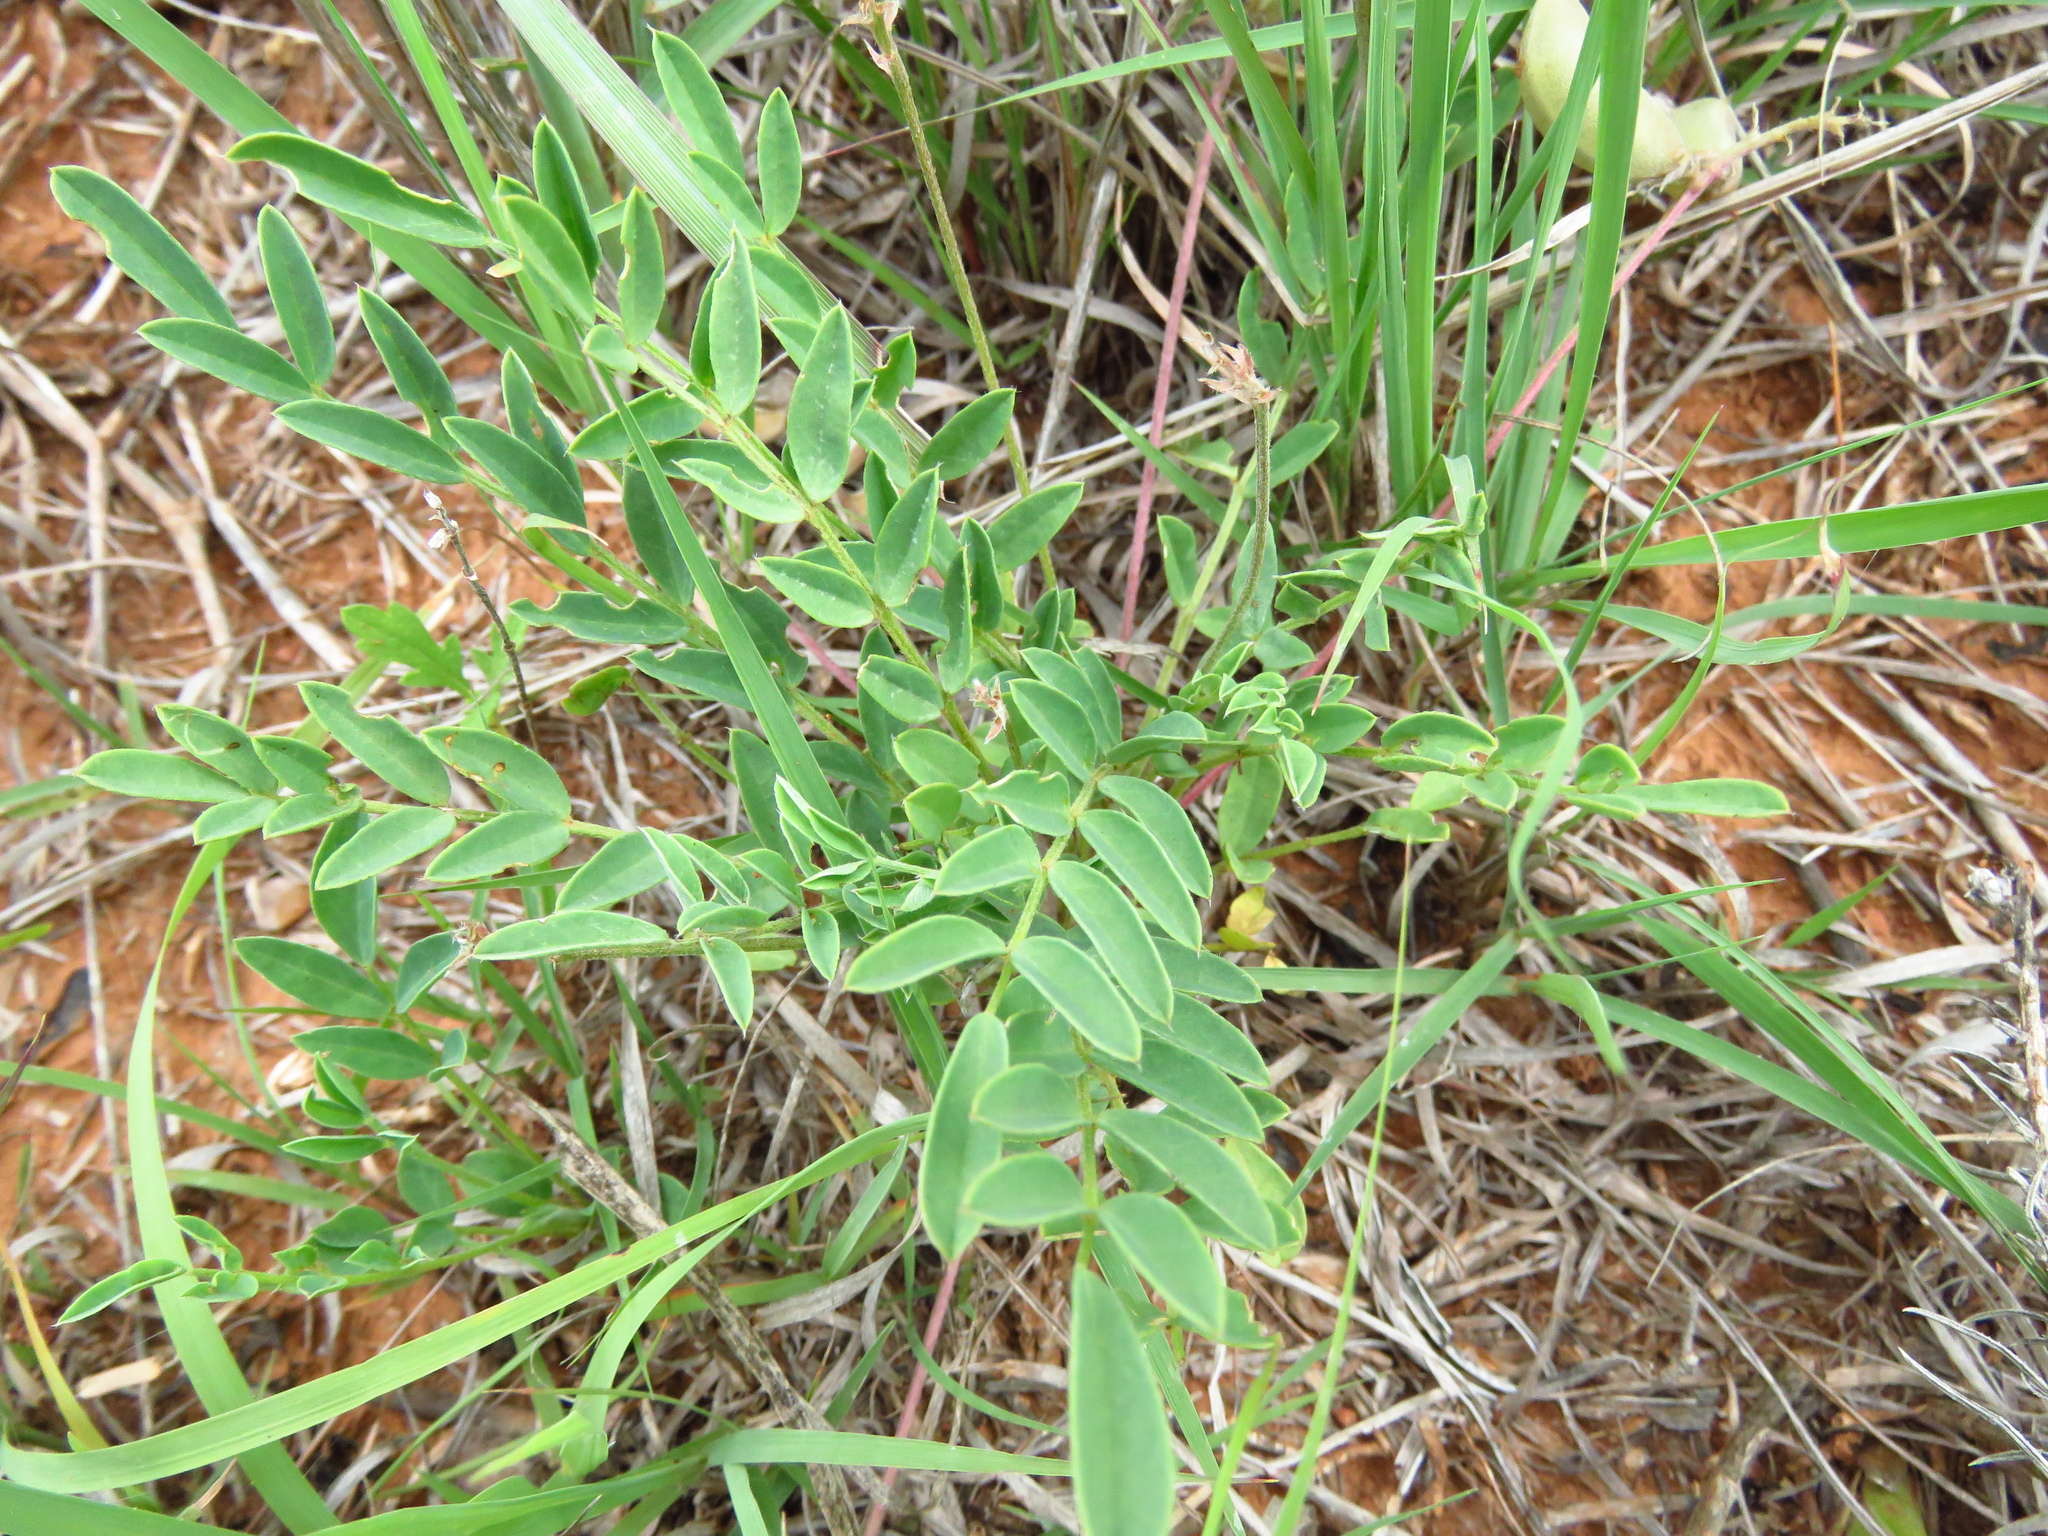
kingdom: Plantae
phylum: Tracheophyta
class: Magnoliopsida
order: Fabales
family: Fabaceae
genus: Astragalus
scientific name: Astragalus lotiflorus
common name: Lotus milk-vetch
